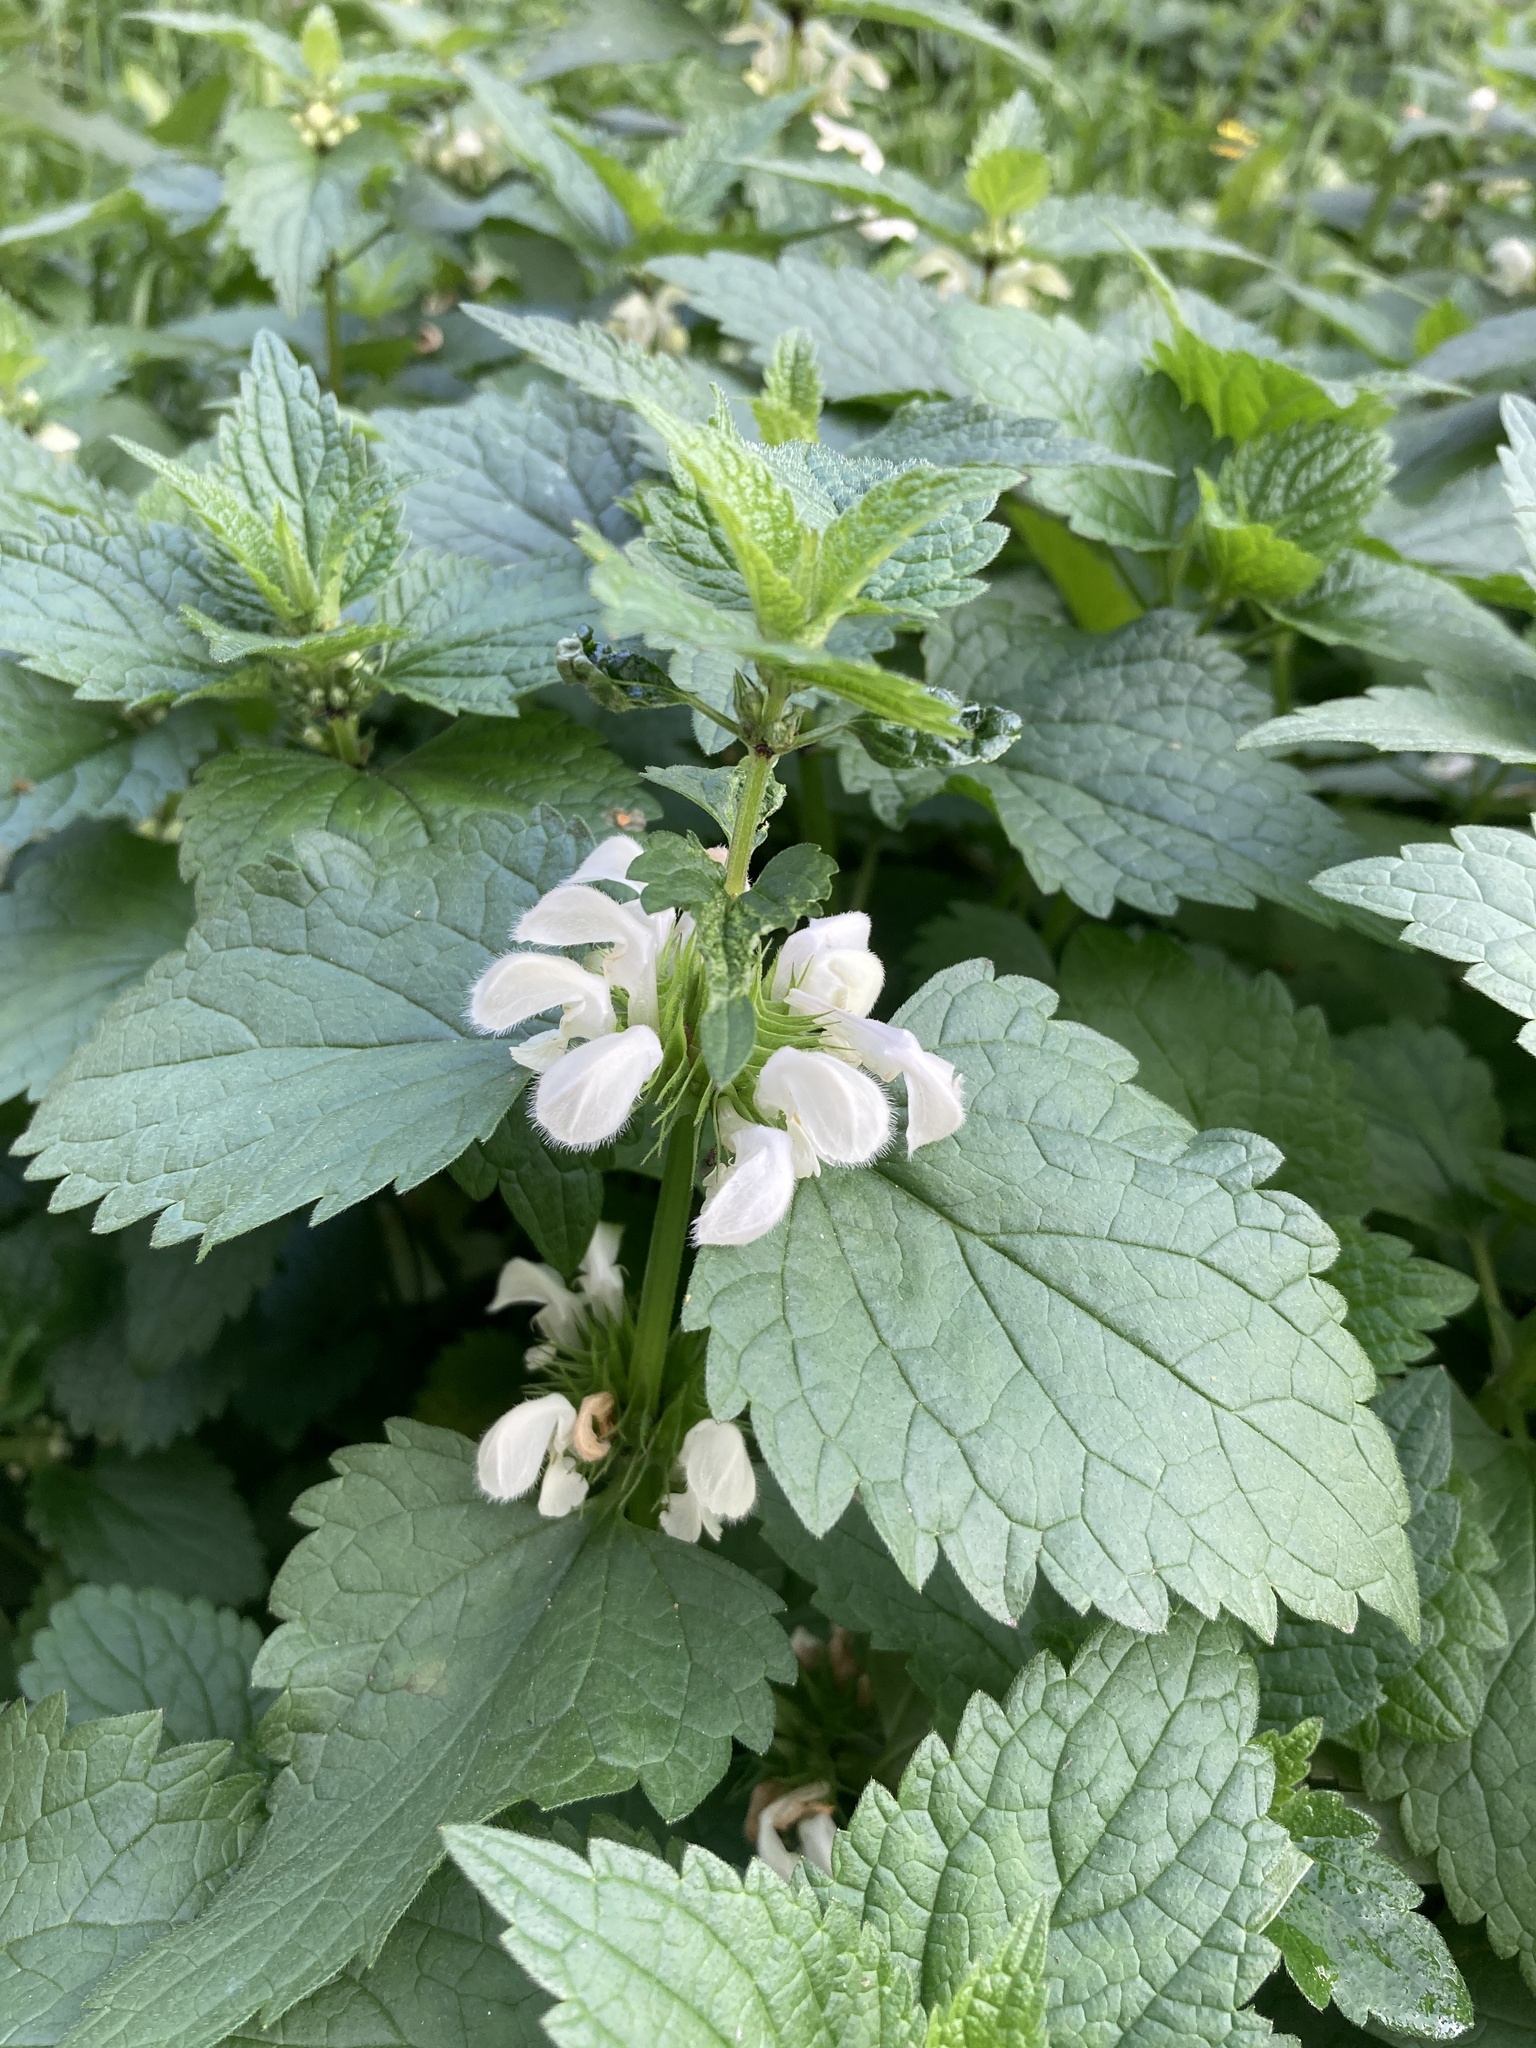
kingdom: Plantae
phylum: Tracheophyta
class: Magnoliopsida
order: Lamiales
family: Lamiaceae
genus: Lamium
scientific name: Lamium album
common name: White dead-nettle
